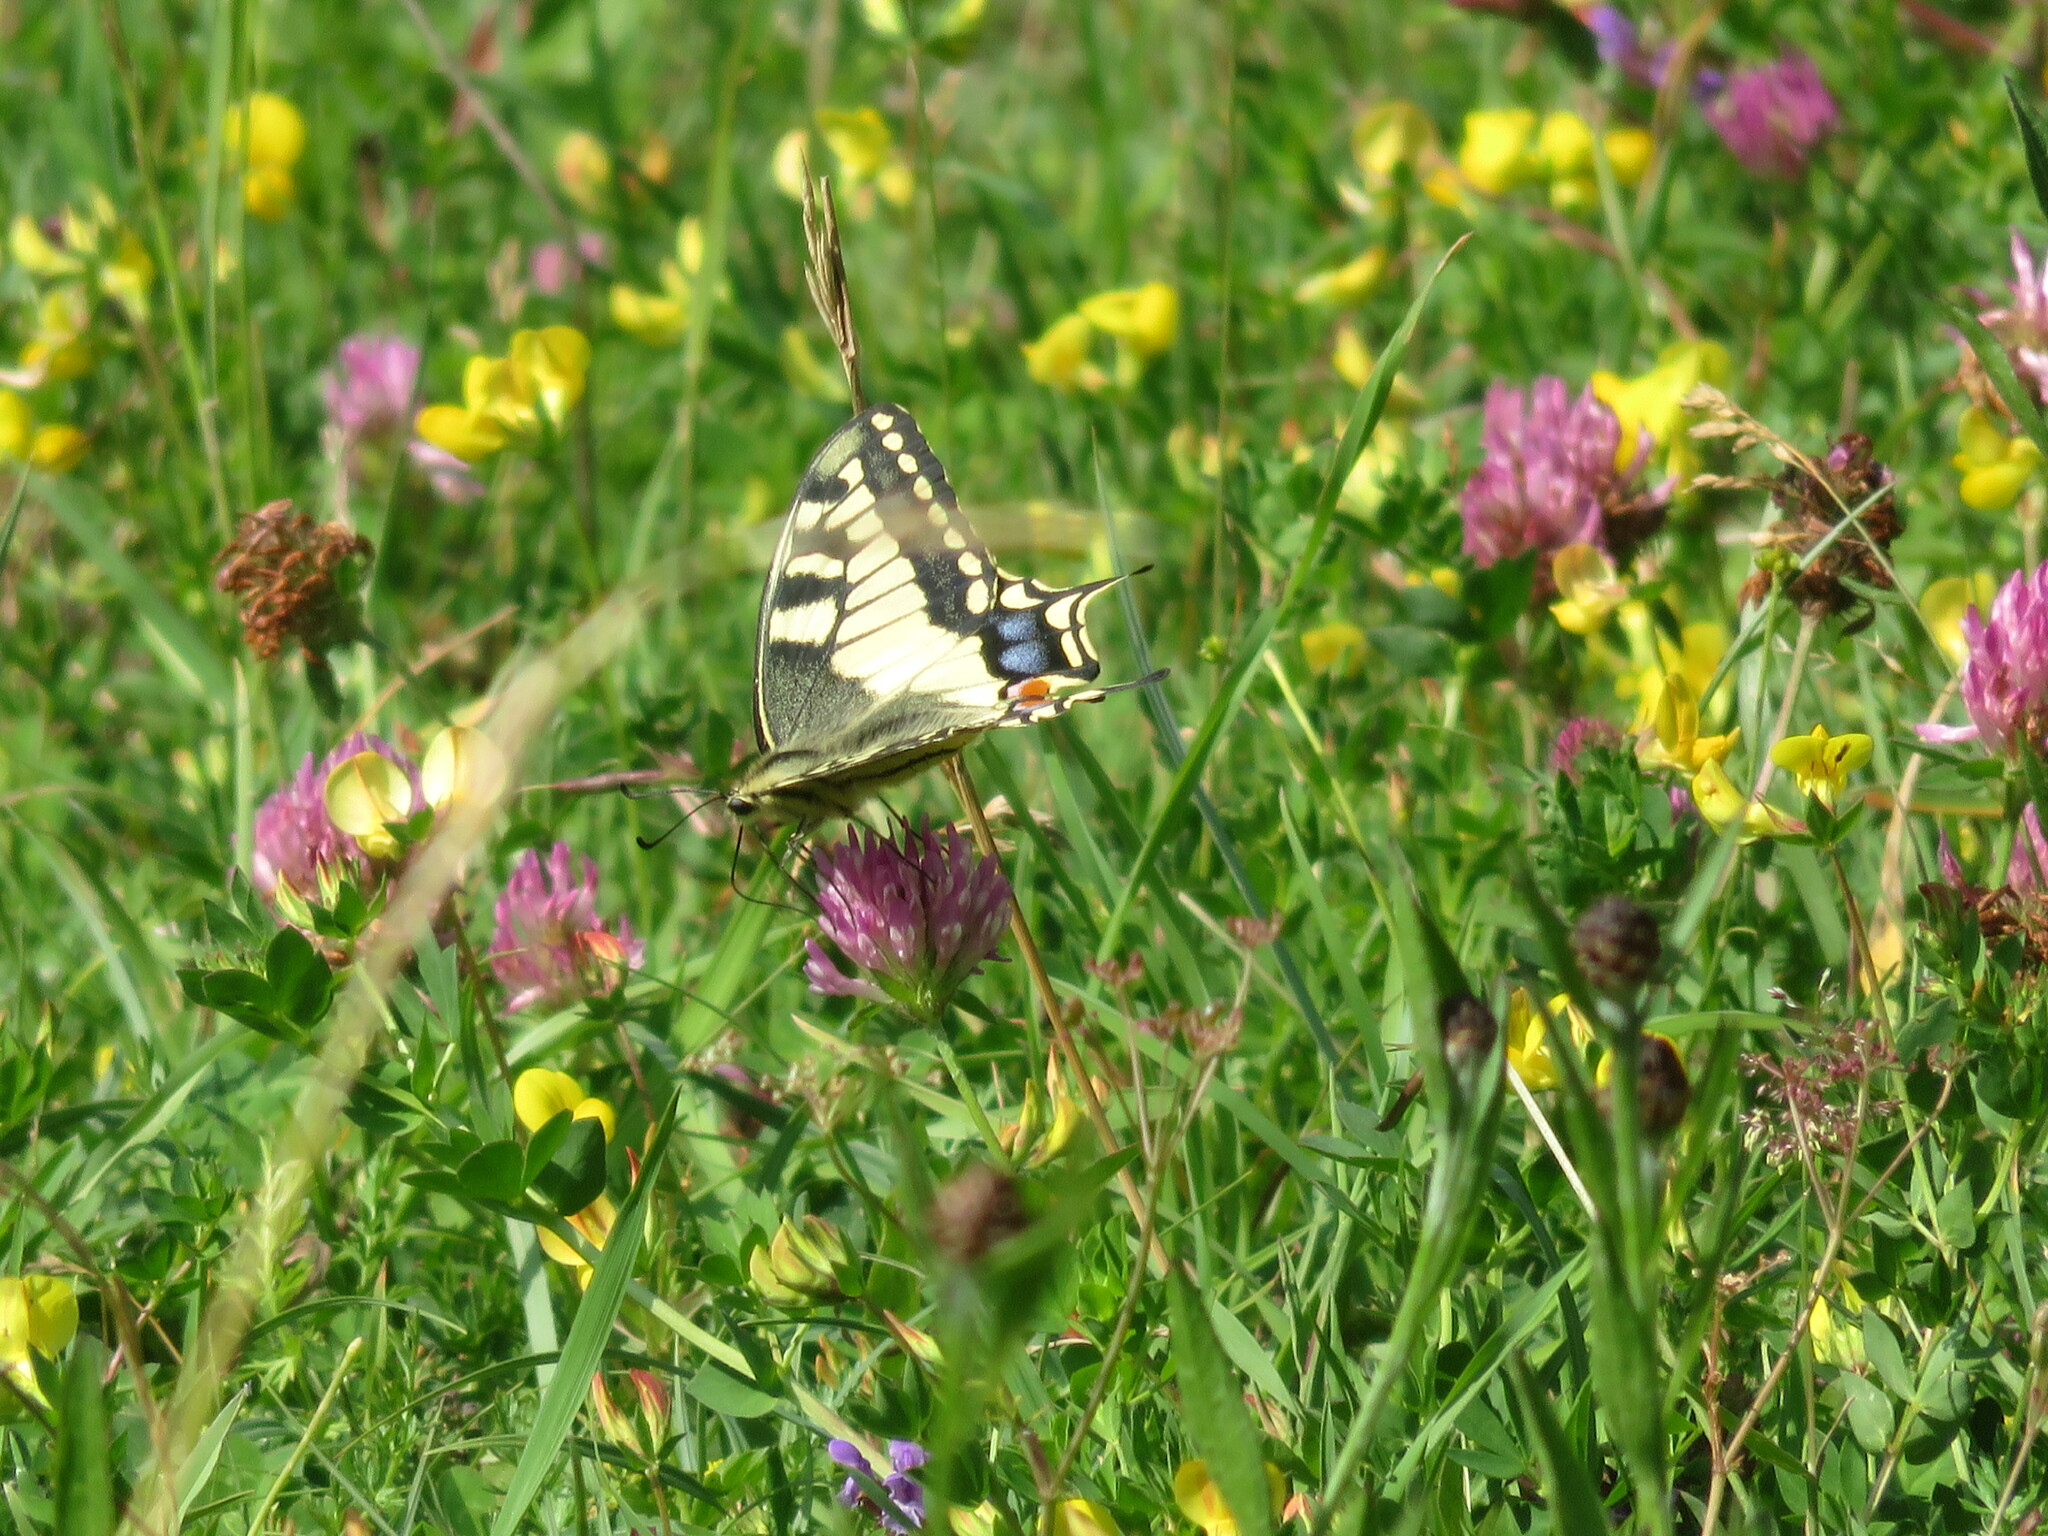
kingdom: Animalia
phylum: Arthropoda
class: Insecta
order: Lepidoptera
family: Papilionidae
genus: Papilio
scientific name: Papilio machaon
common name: Swallowtail
